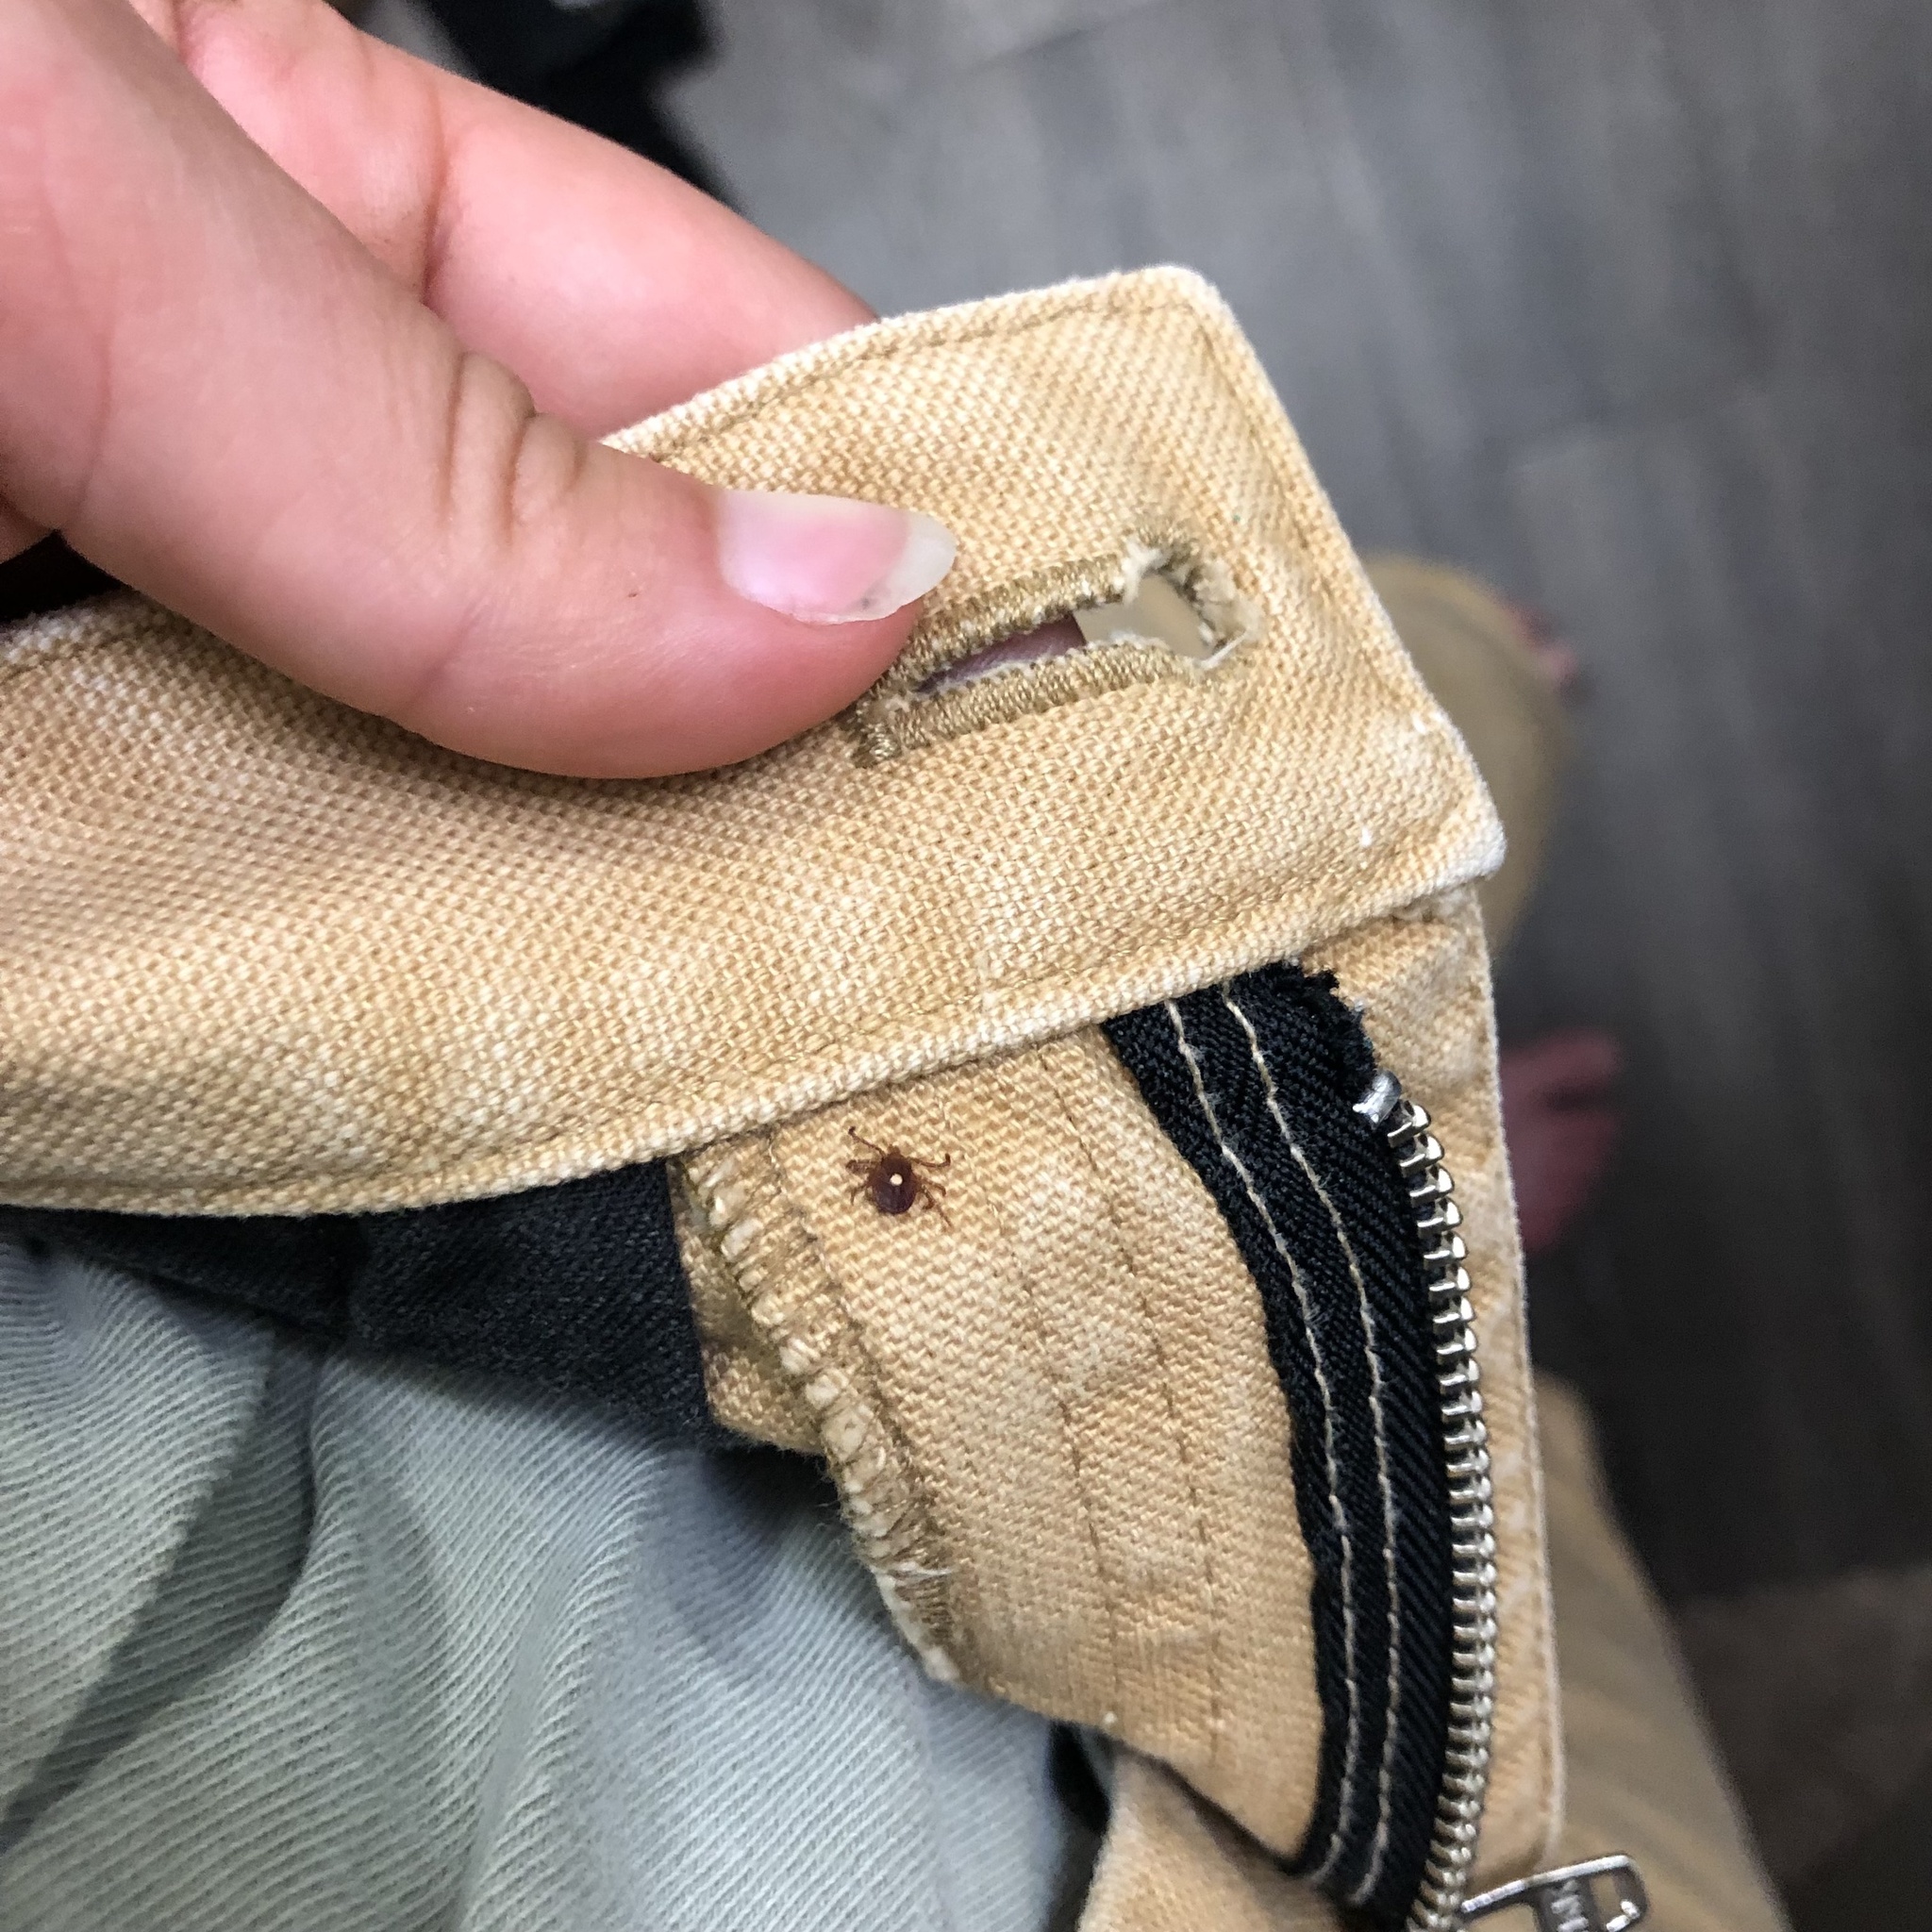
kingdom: Animalia
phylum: Arthropoda
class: Arachnida
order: Ixodida
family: Ixodidae
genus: Amblyomma
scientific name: Amblyomma americanum
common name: Lone star tick
